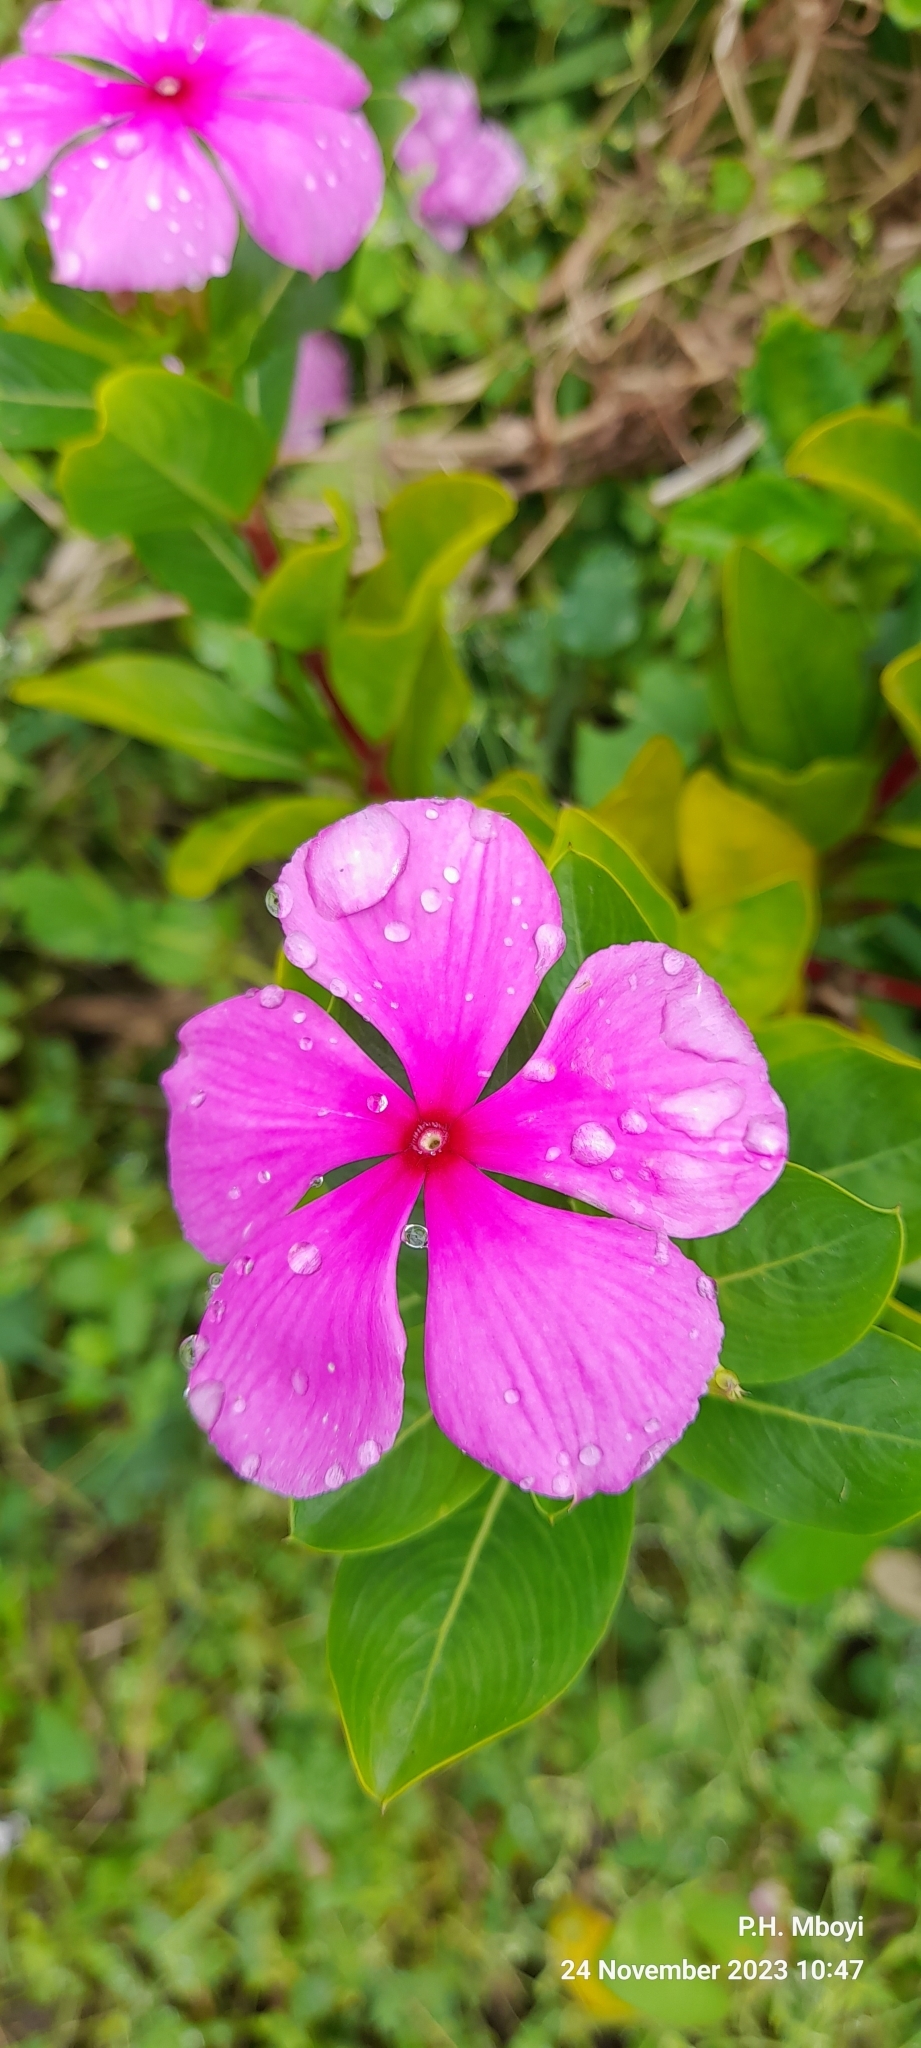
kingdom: Plantae
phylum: Tracheophyta
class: Magnoliopsida
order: Gentianales
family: Apocynaceae
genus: Catharanthus
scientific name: Catharanthus roseus
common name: Madagascar periwinkle
